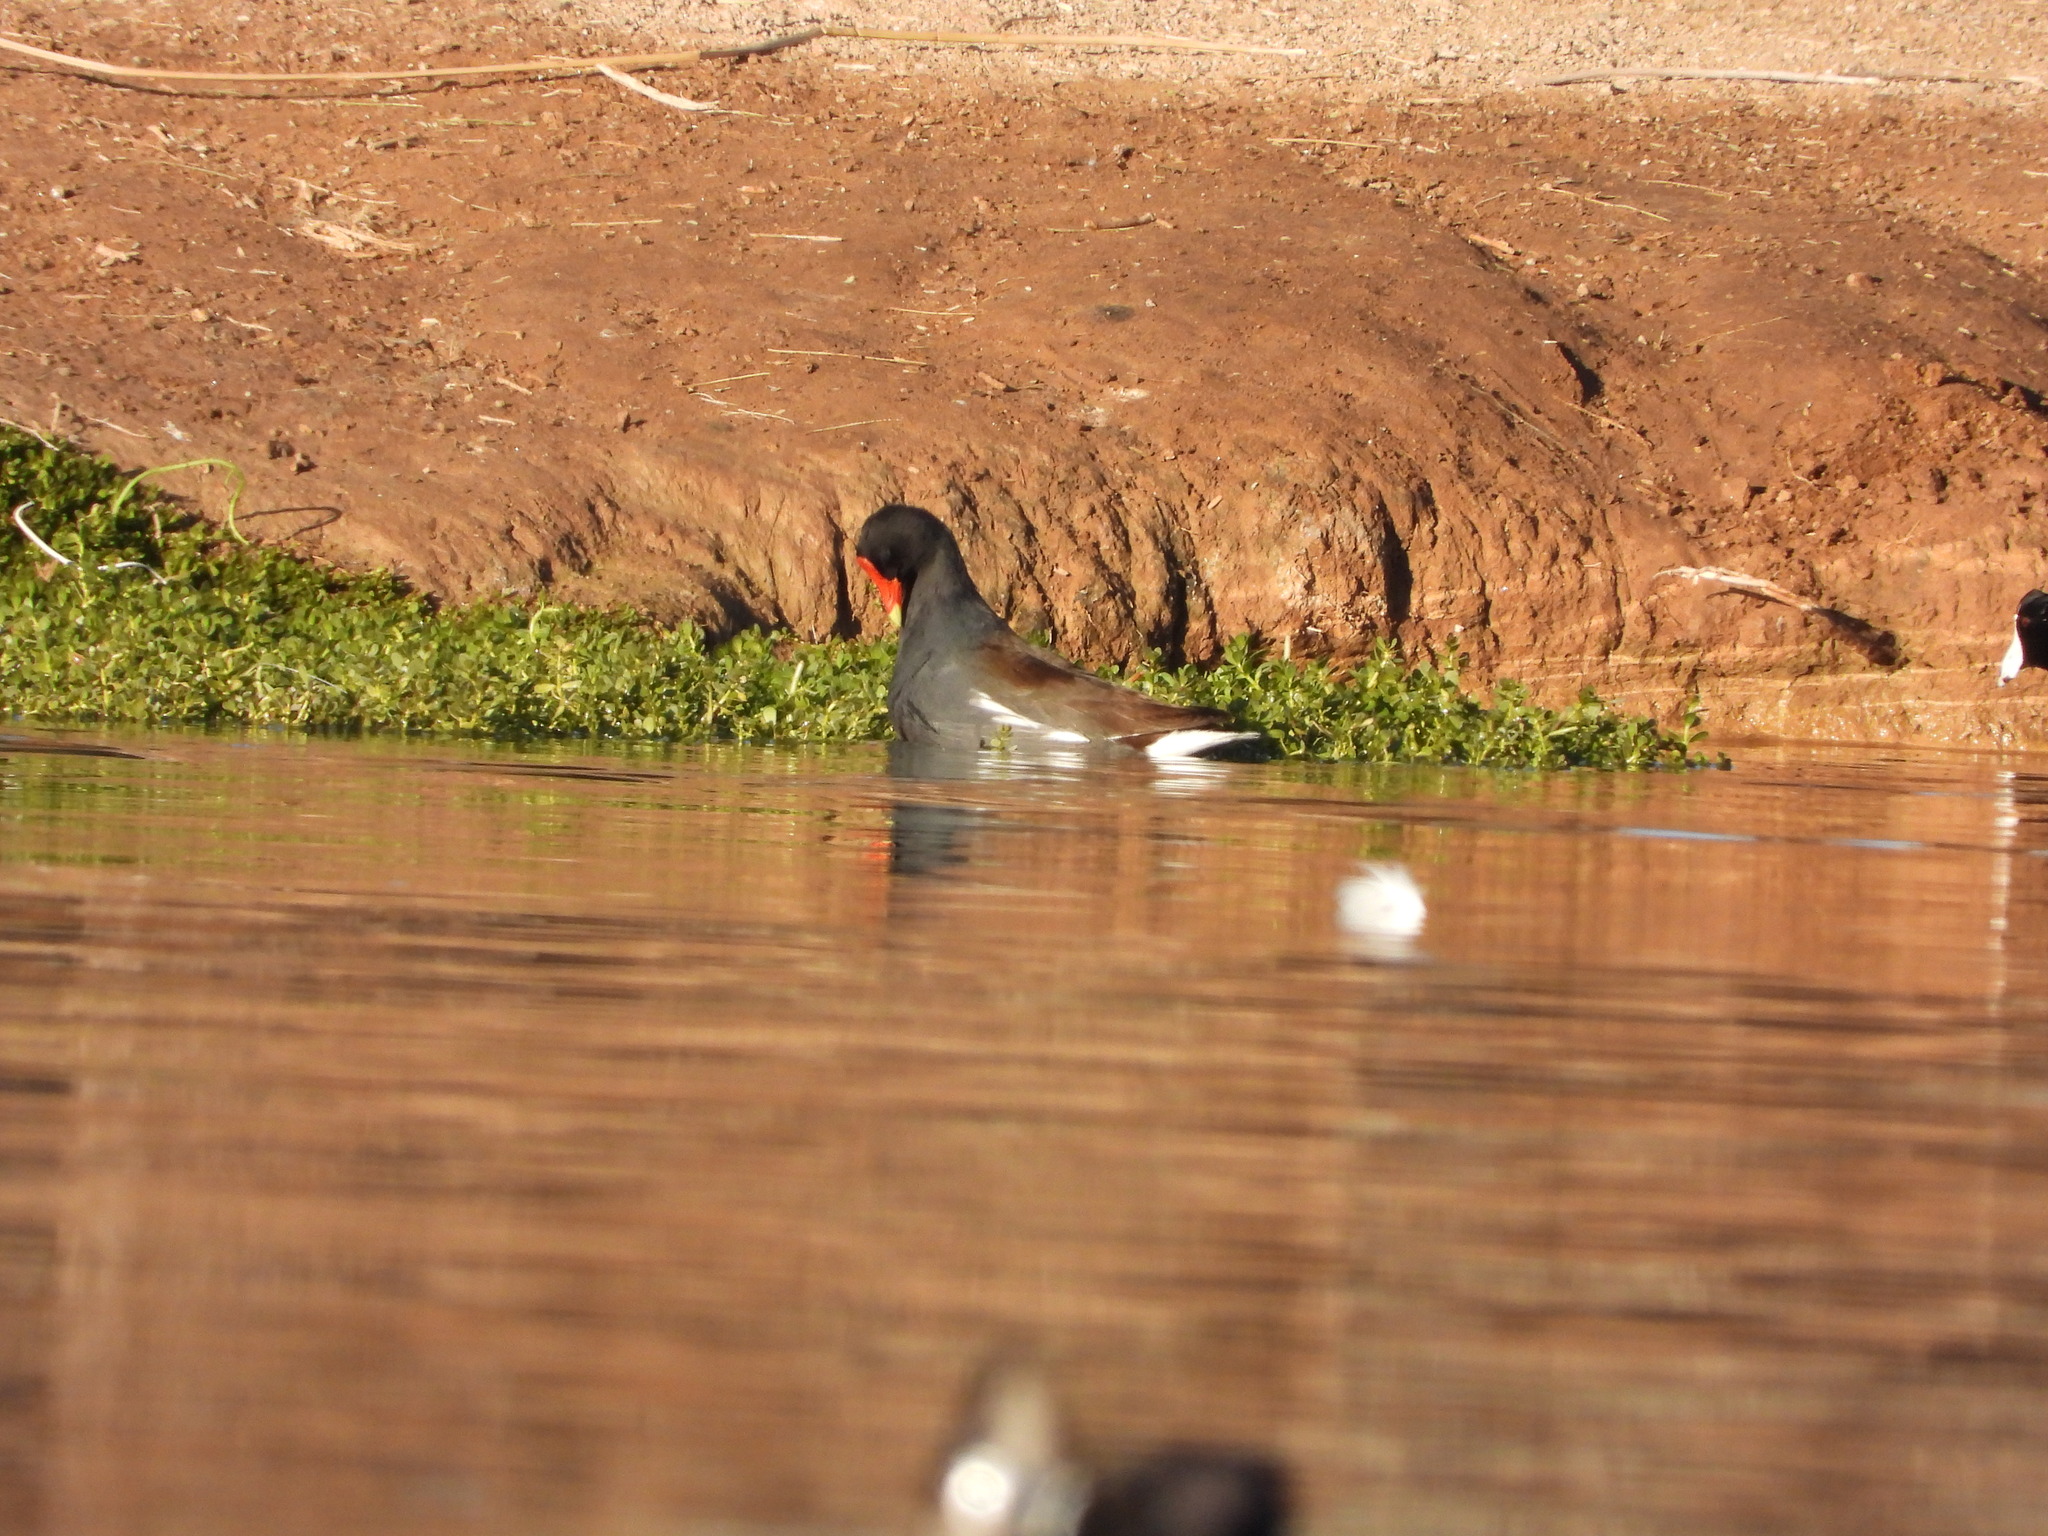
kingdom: Animalia
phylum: Chordata
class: Aves
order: Gruiformes
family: Rallidae
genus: Gallinula
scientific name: Gallinula chloropus
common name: Common moorhen
